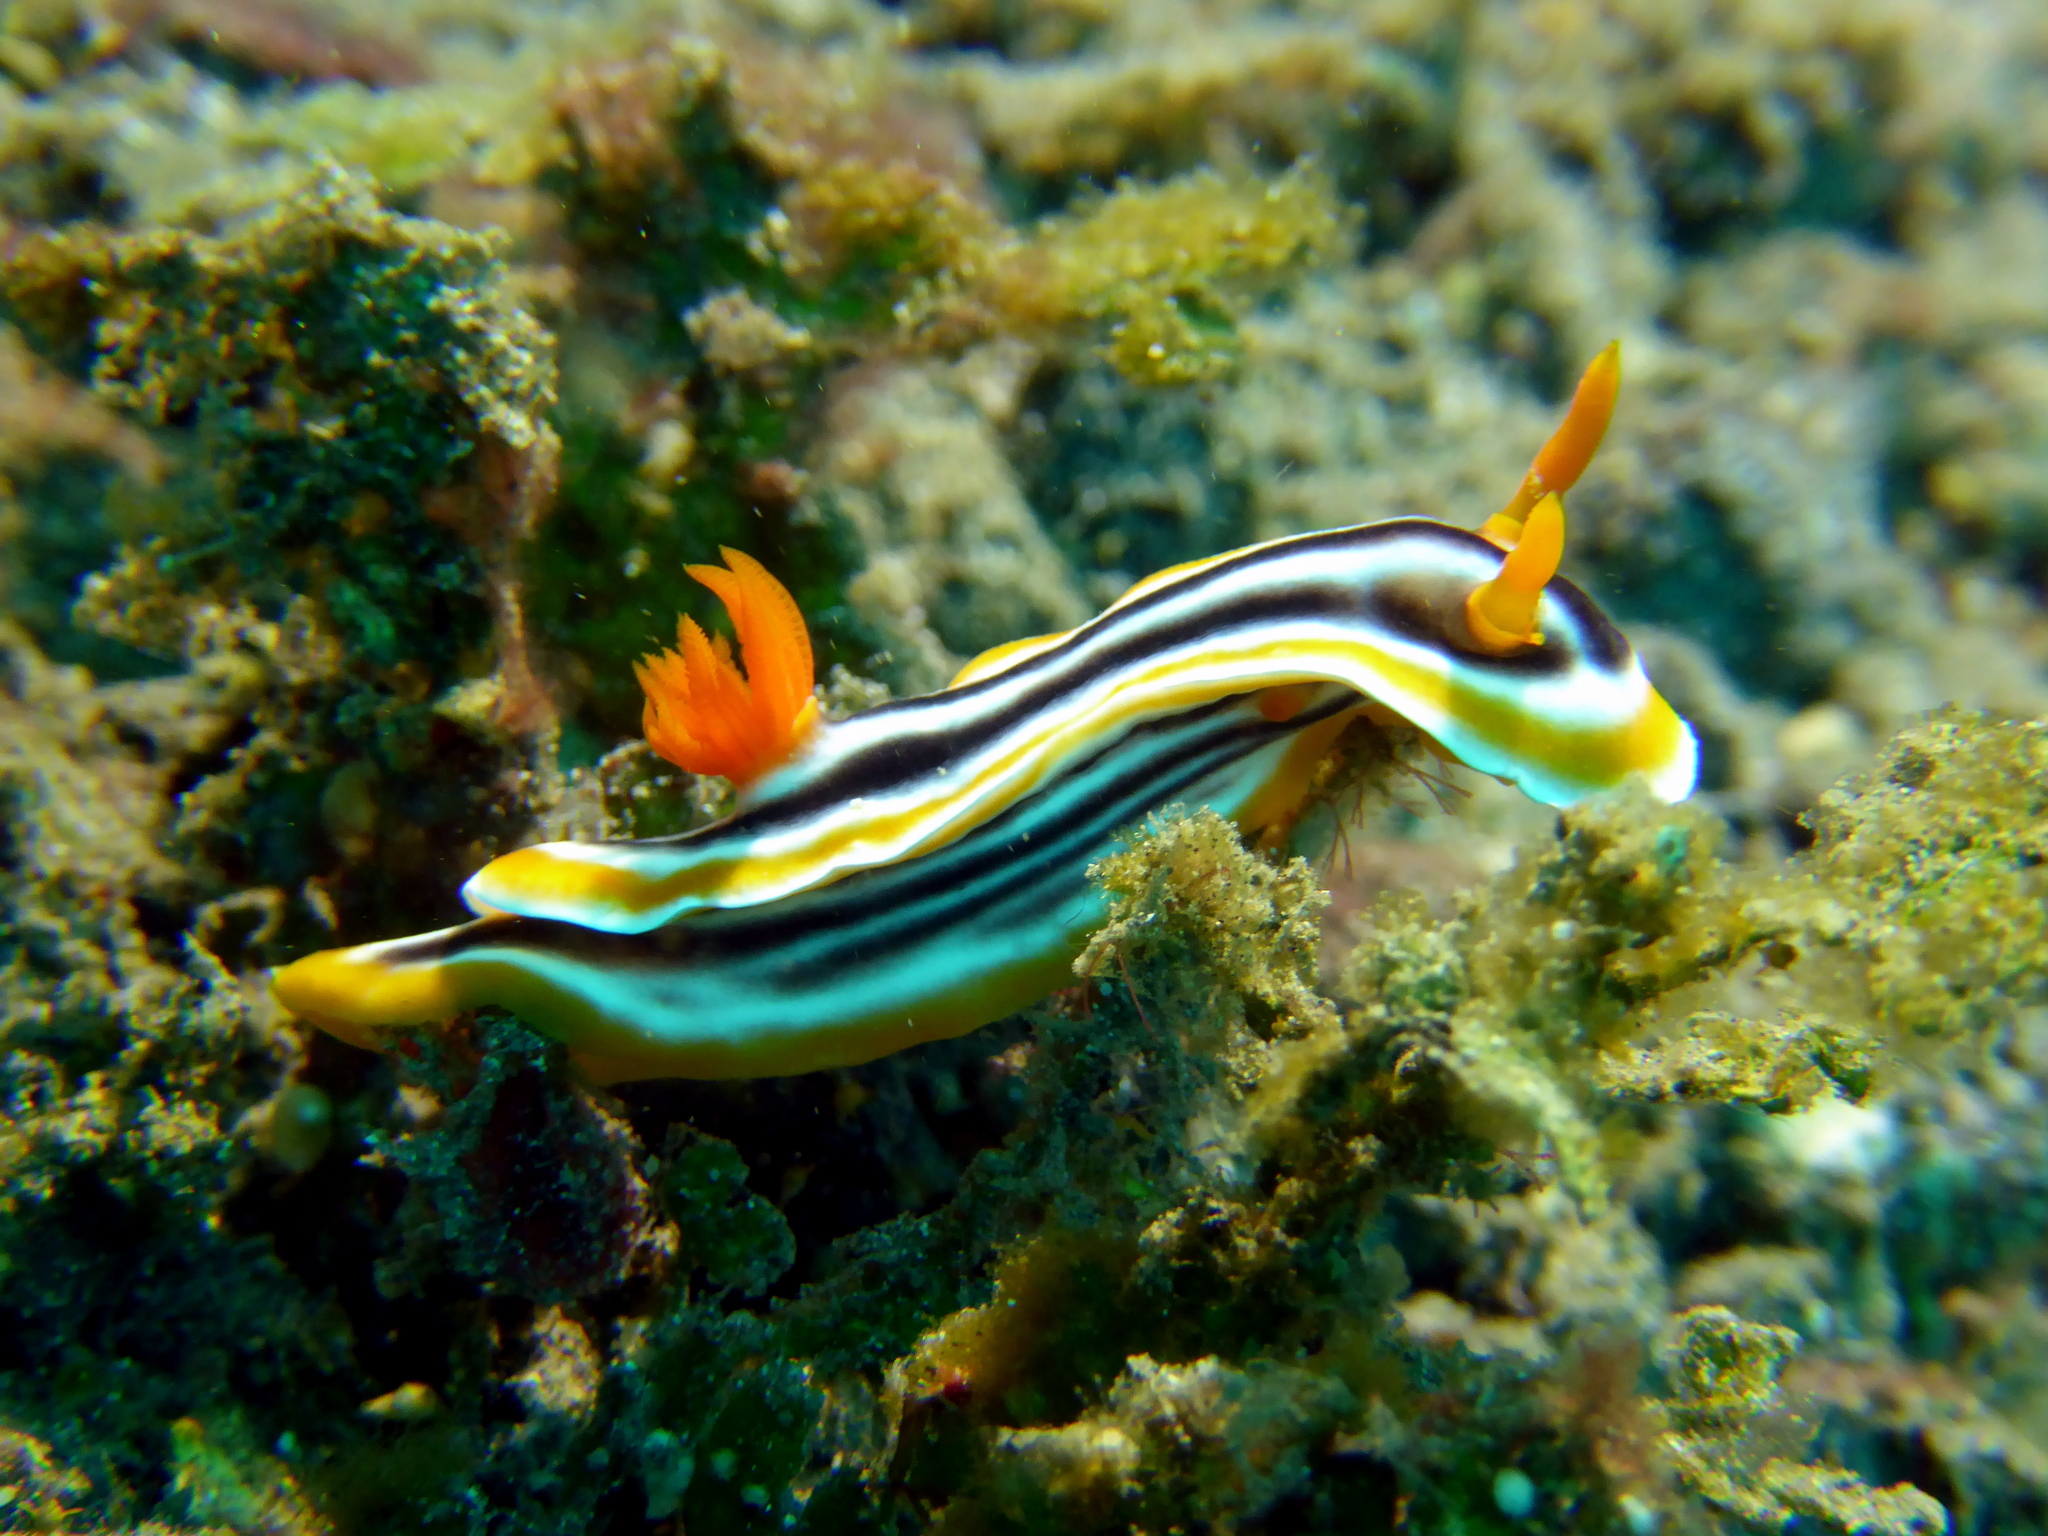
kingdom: Animalia
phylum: Mollusca
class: Gastropoda
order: Nudibranchia
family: Chromodorididae
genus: Chromodoris
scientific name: Chromodoris magnifica
